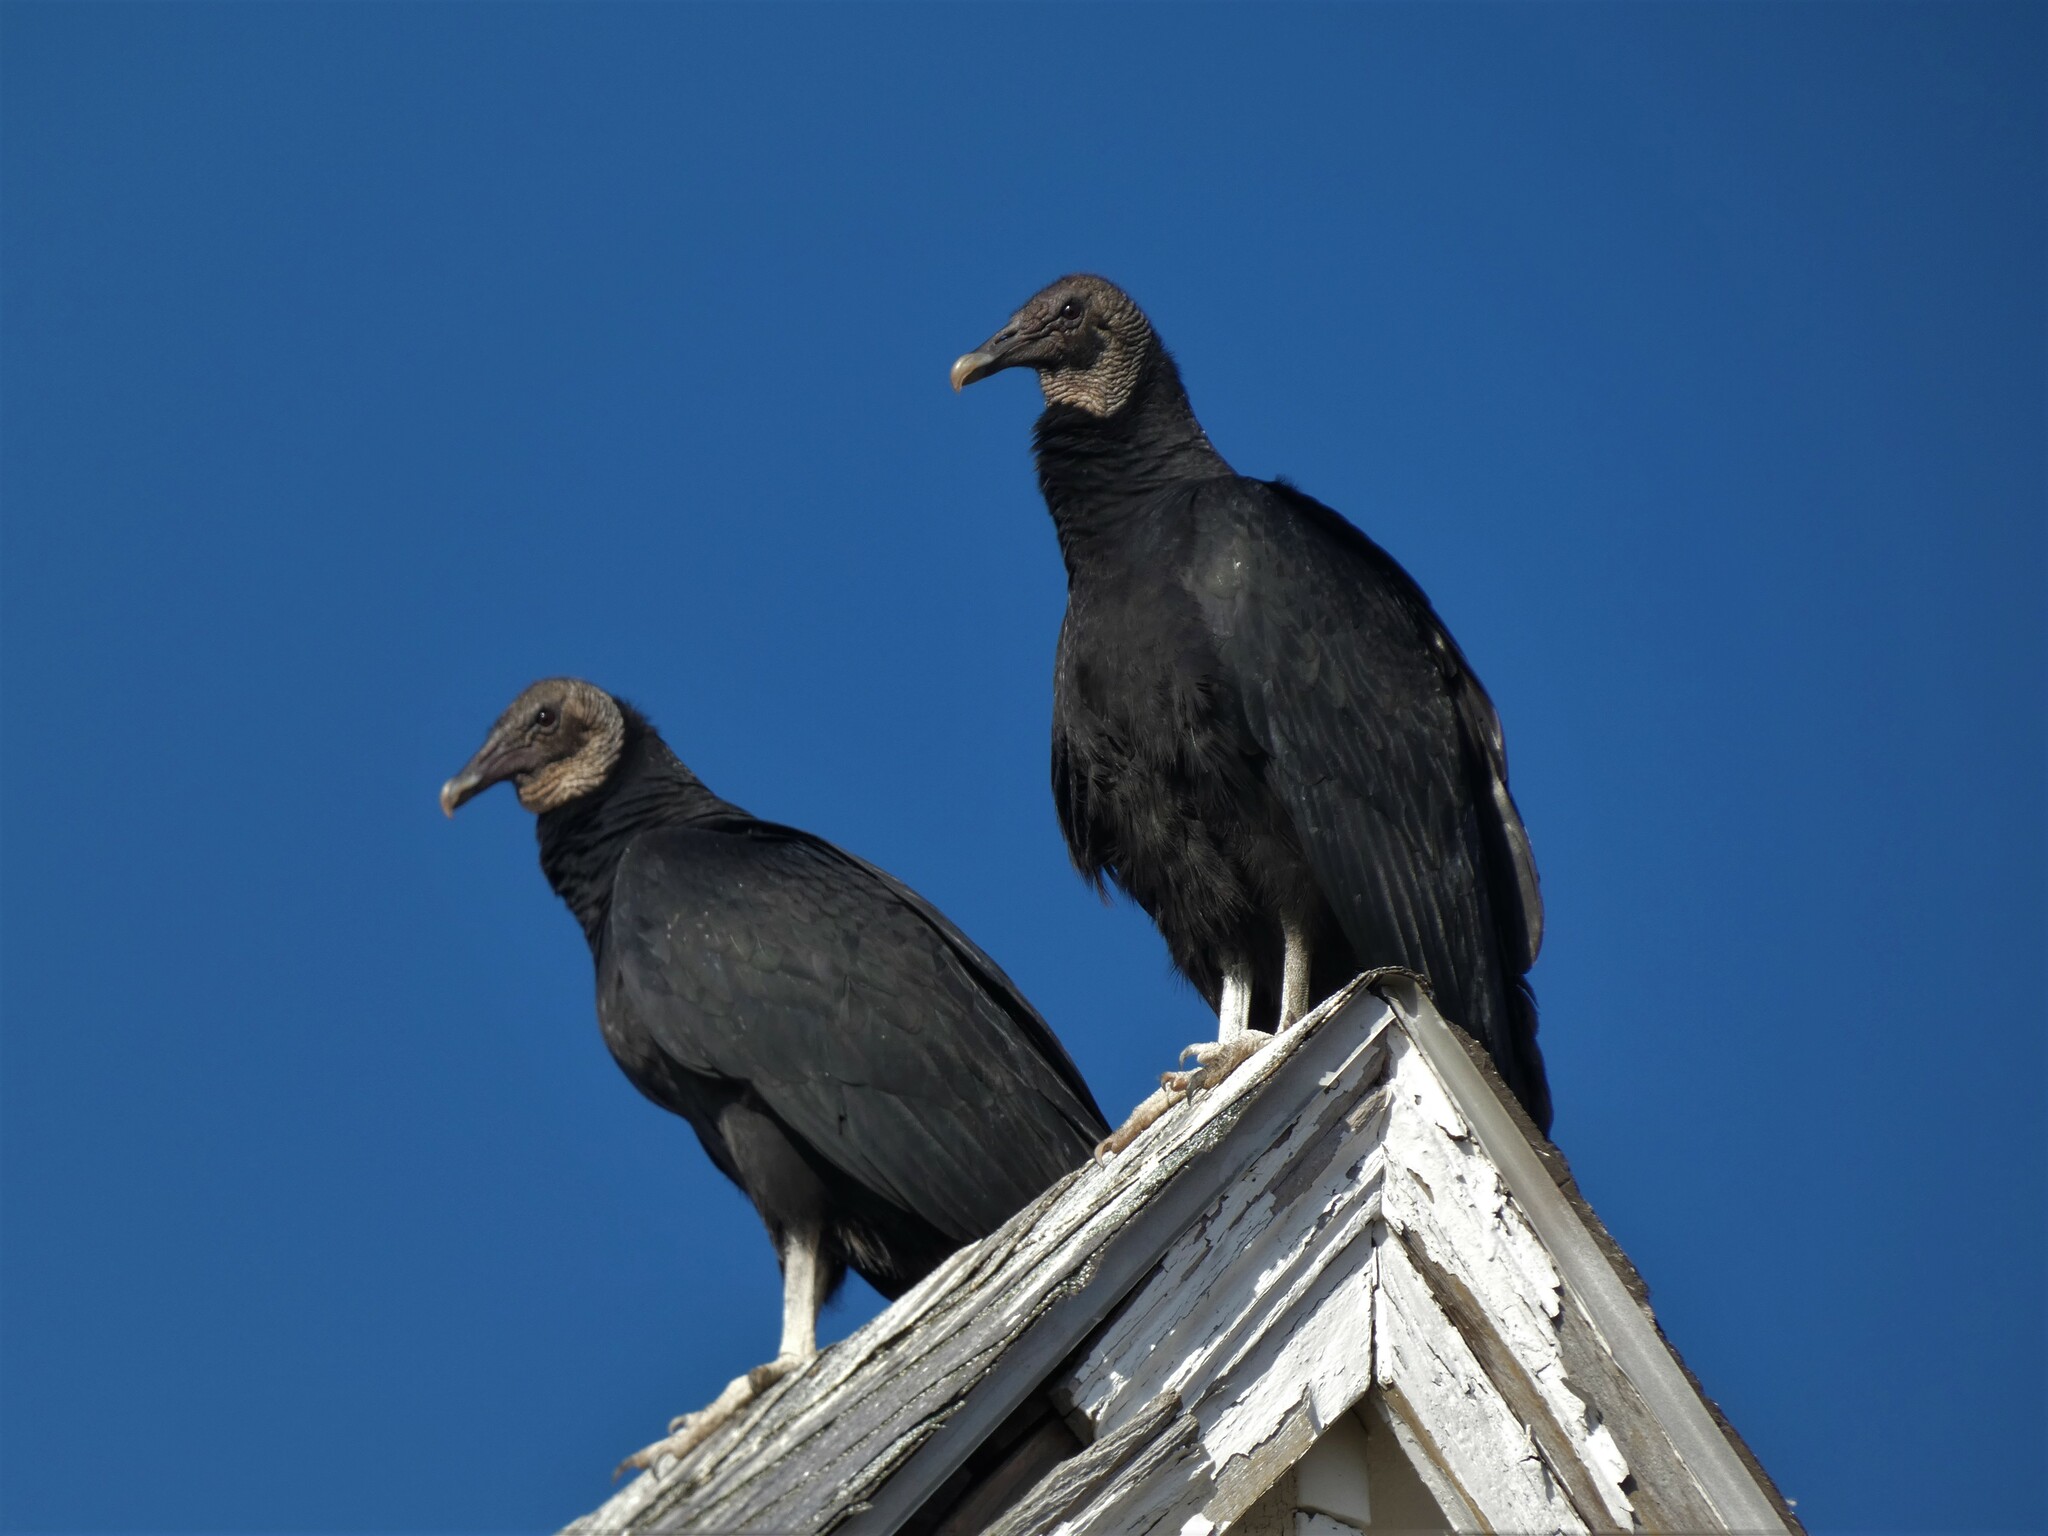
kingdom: Animalia
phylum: Chordata
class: Aves
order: Accipitriformes
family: Cathartidae
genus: Coragyps
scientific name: Coragyps atratus
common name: Black vulture
